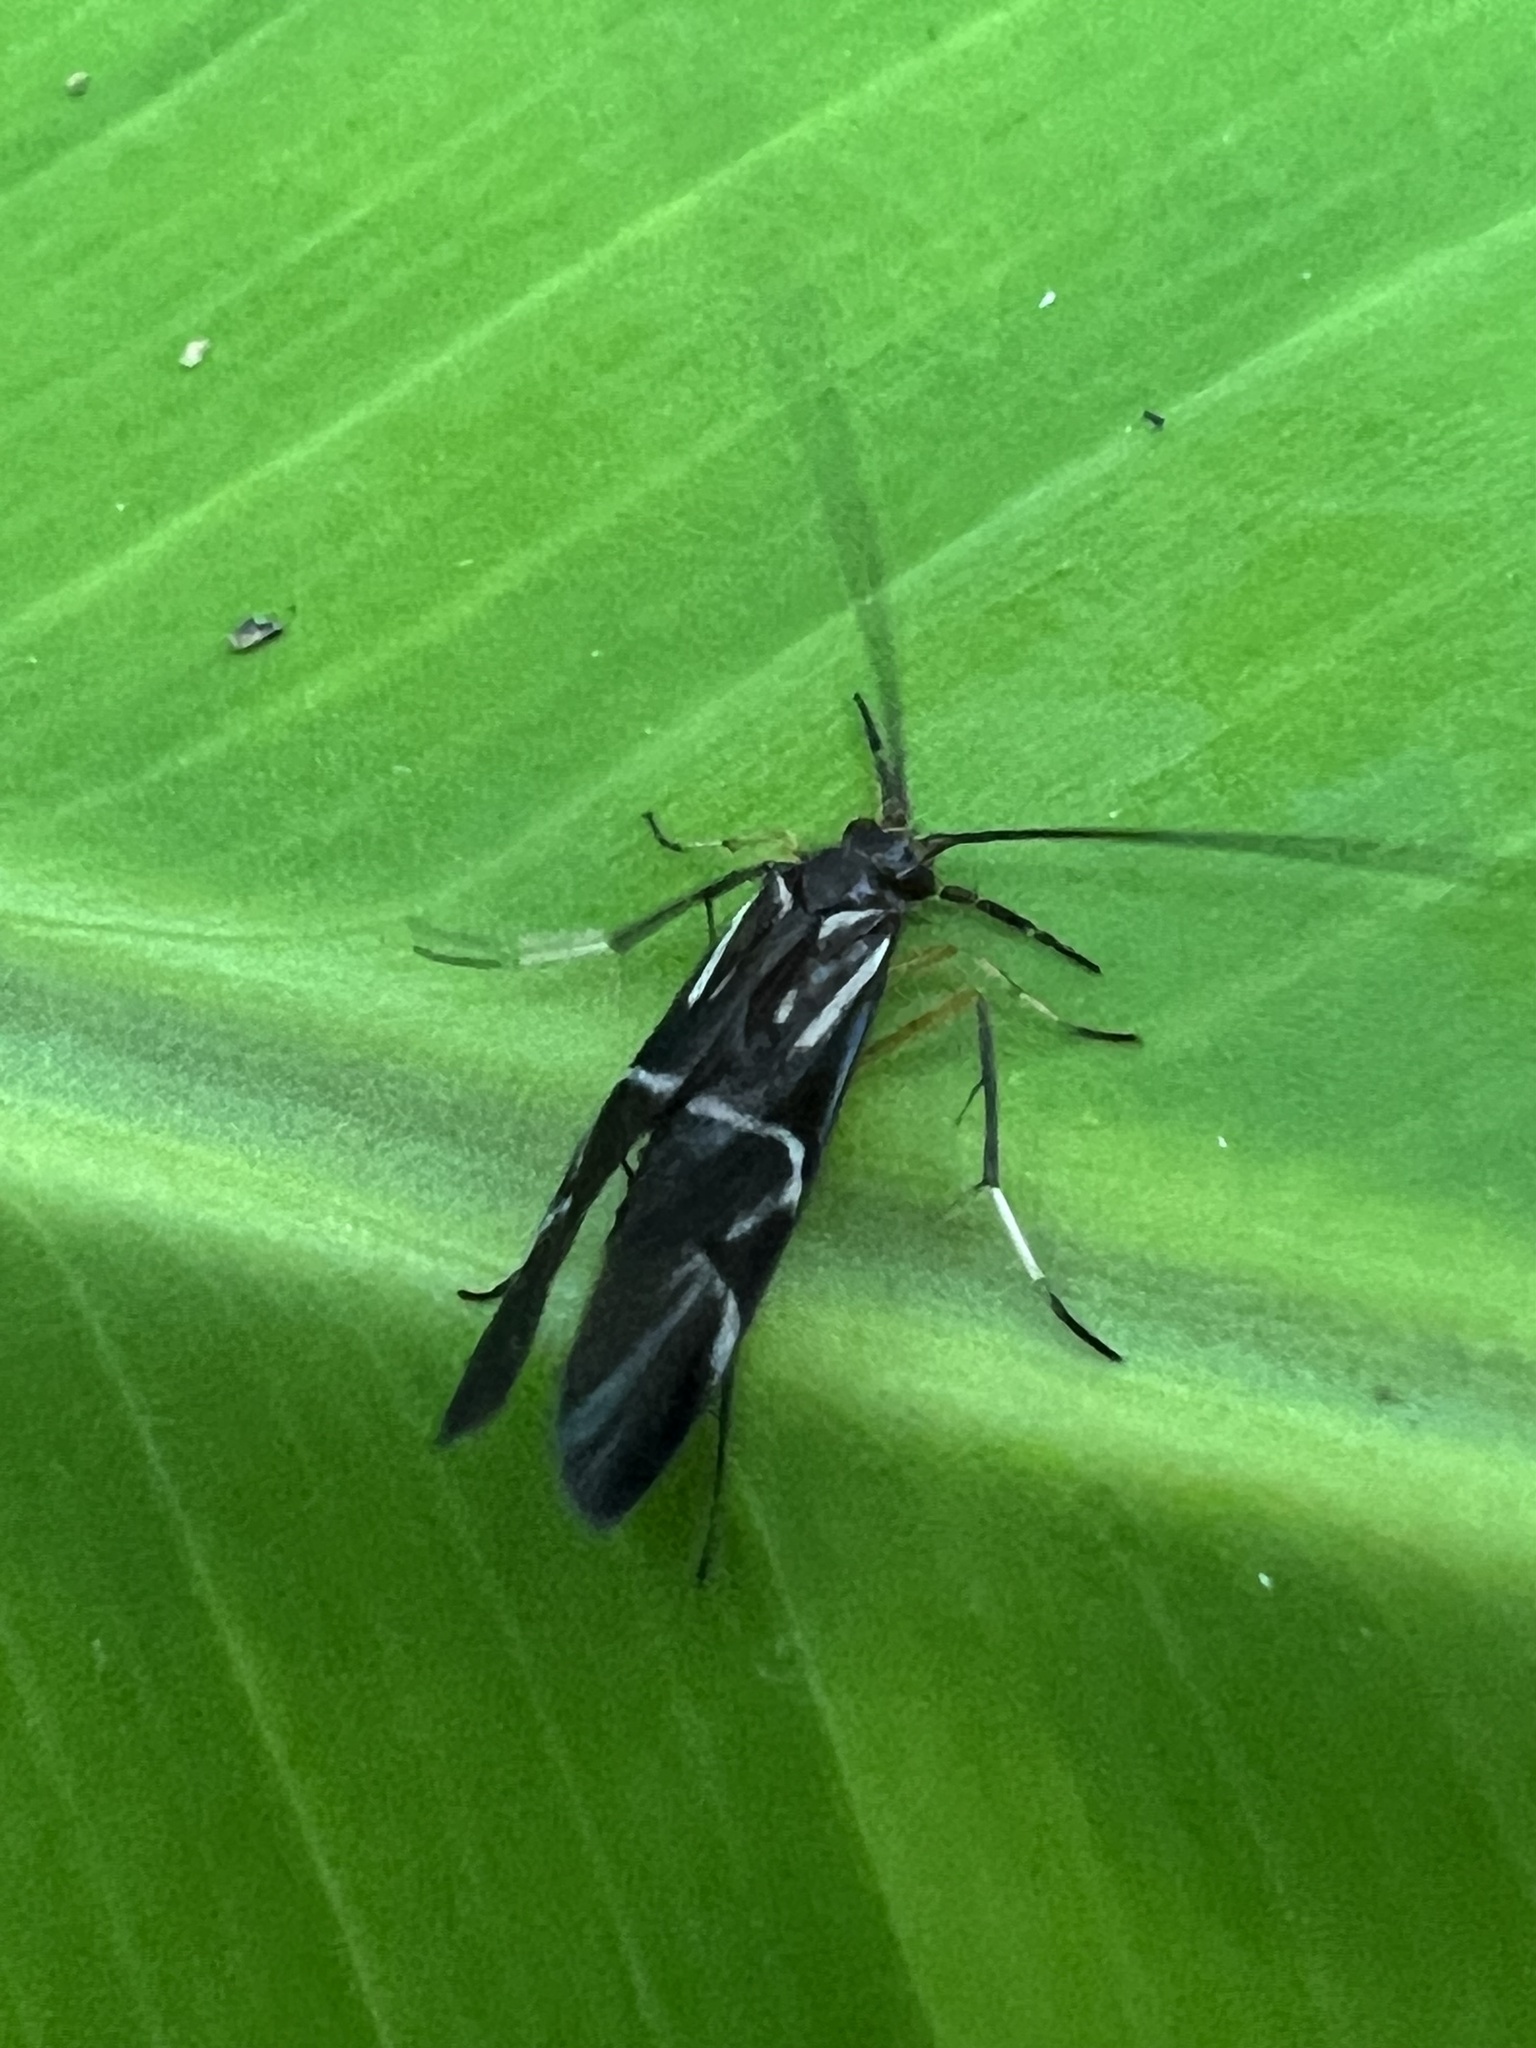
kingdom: Animalia
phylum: Arthropoda
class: Insecta
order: Trichoptera
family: Calamoceratidae
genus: Phylloicus
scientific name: Phylloicus elegans
